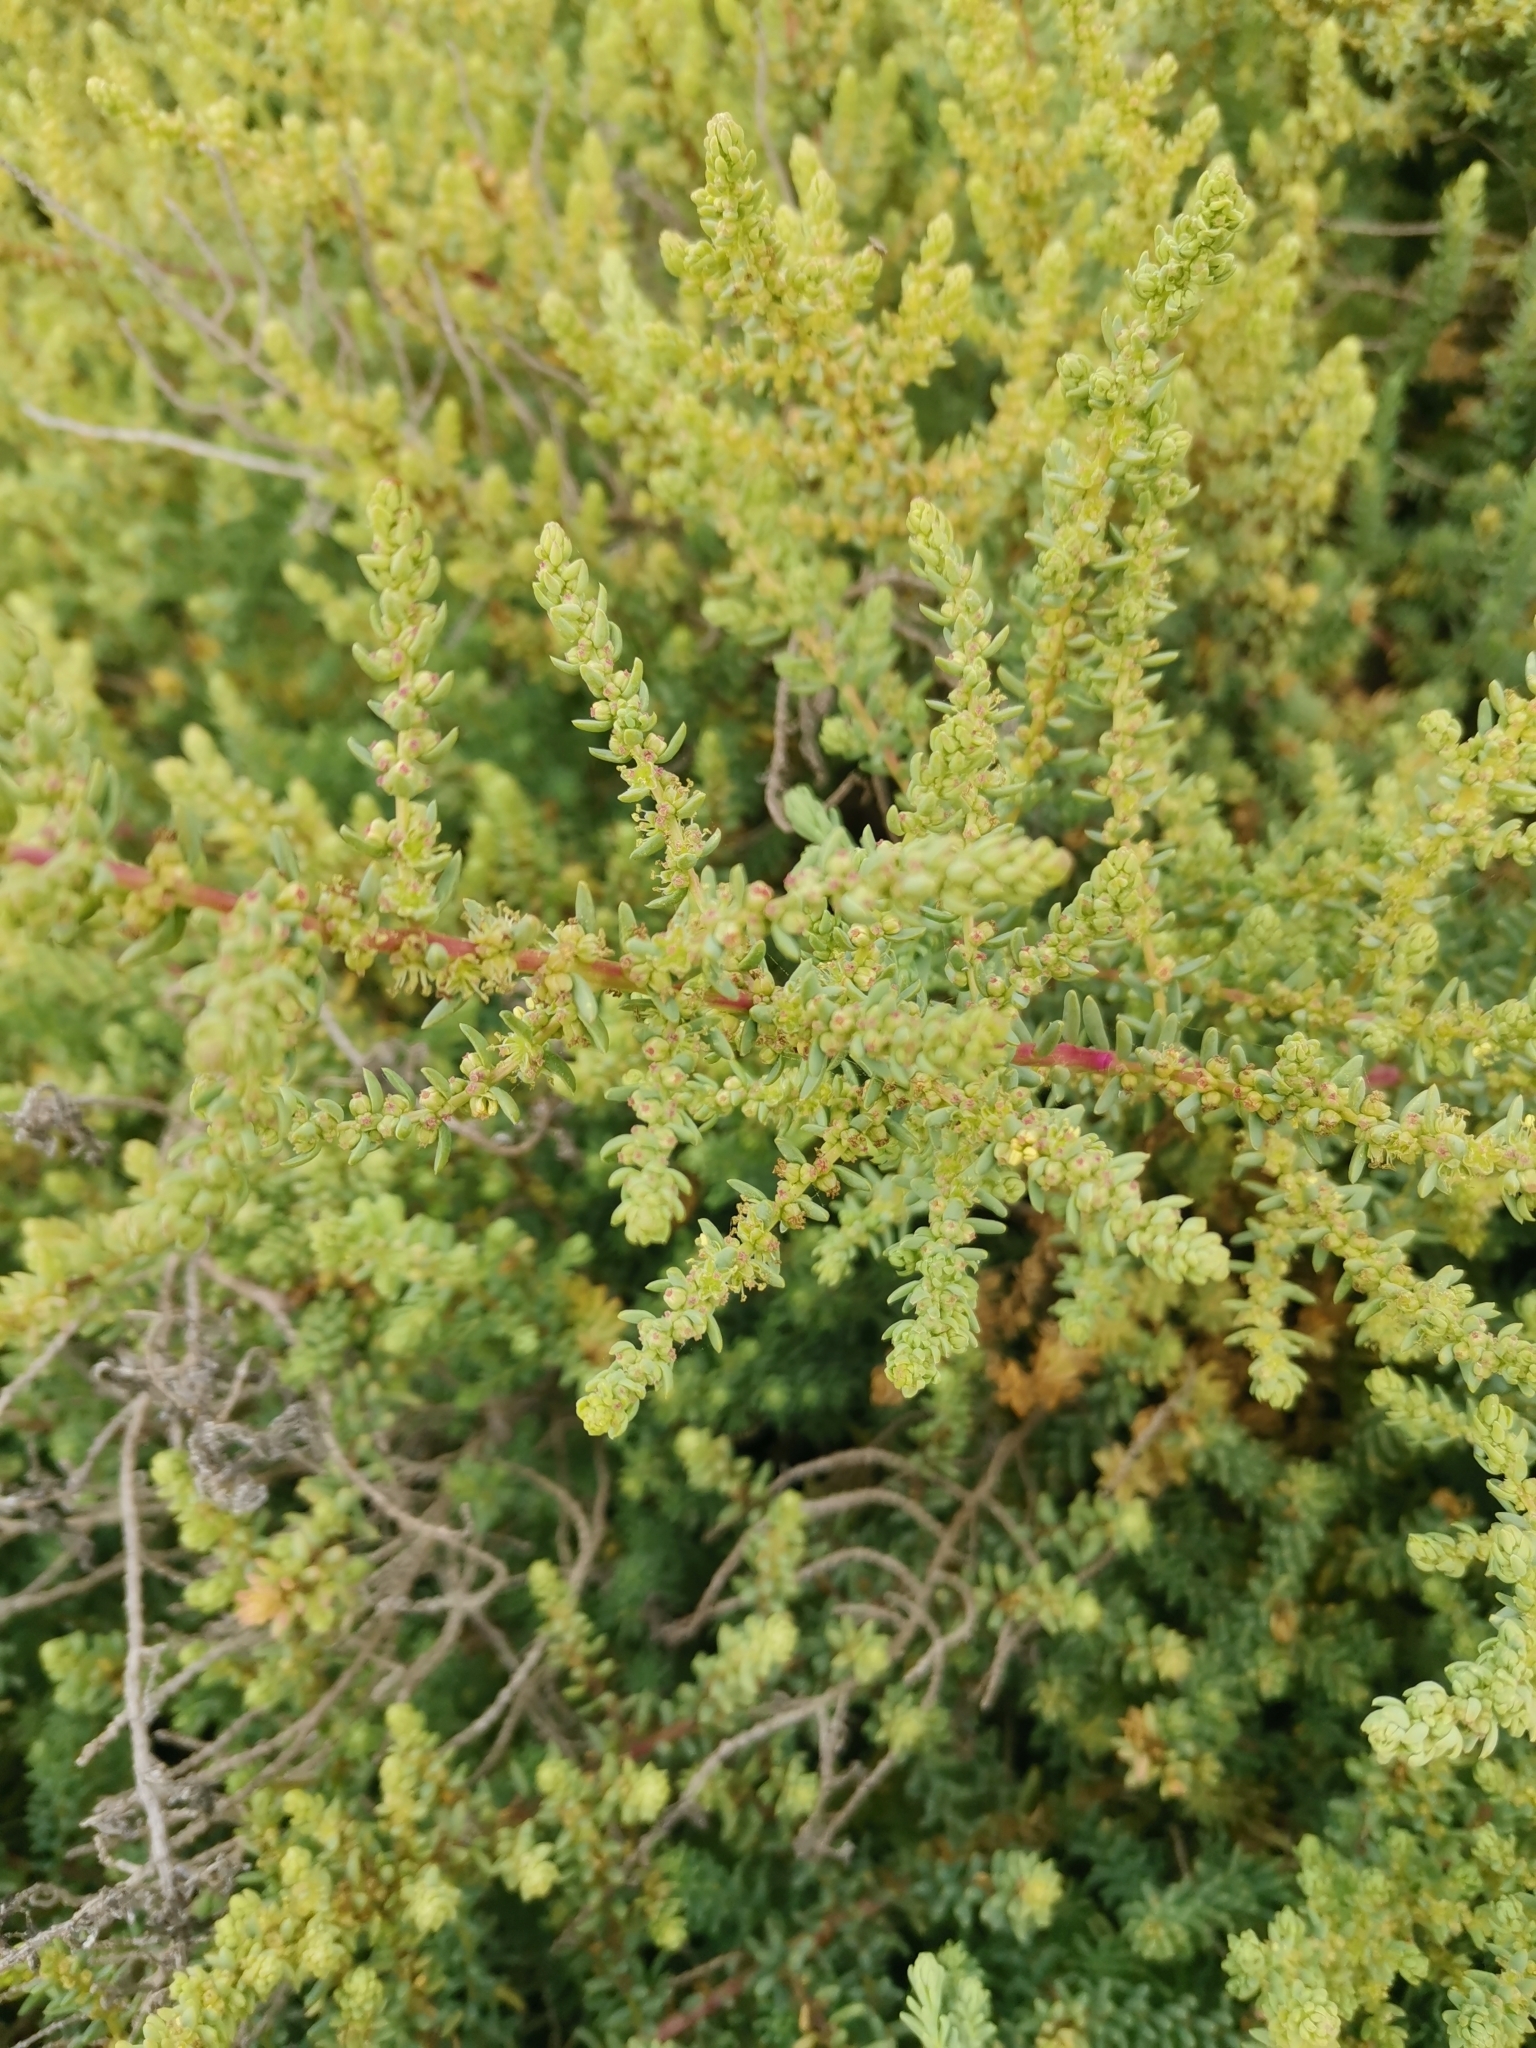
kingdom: Plantae
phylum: Tracheophyta
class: Magnoliopsida
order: Caryophyllales
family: Amaranthaceae
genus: Suaeda
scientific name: Suaeda vera
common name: Shrubby sea-blite
